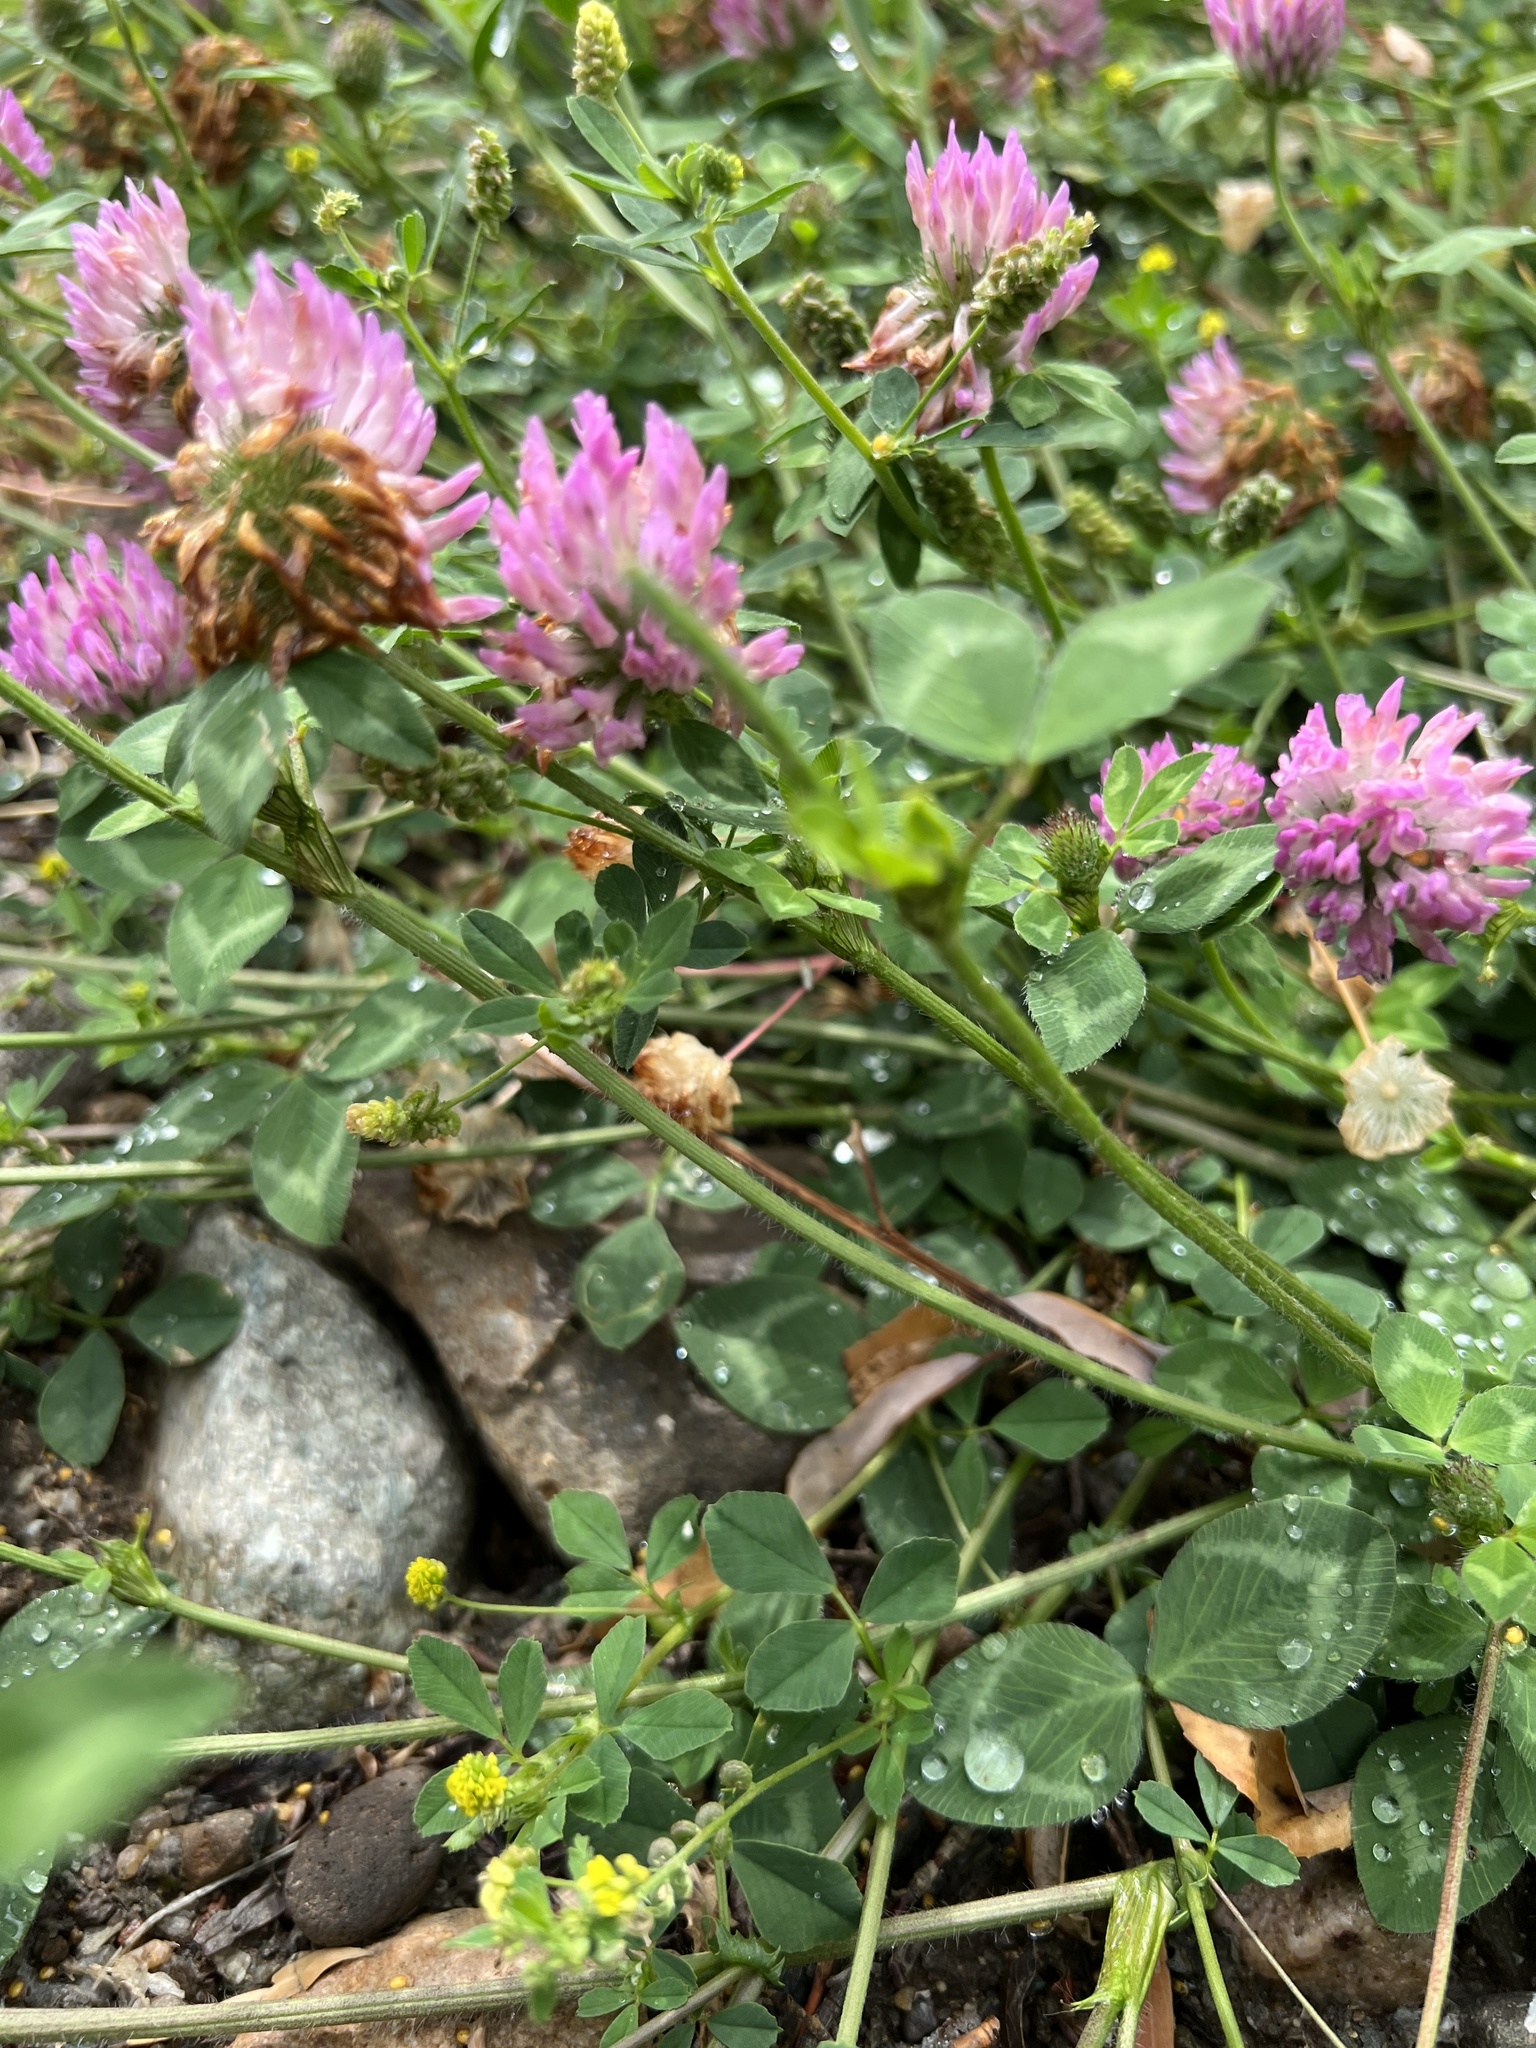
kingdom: Plantae
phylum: Tracheophyta
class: Magnoliopsida
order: Fabales
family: Fabaceae
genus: Trifolium
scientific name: Trifolium pratense
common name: Red clover
